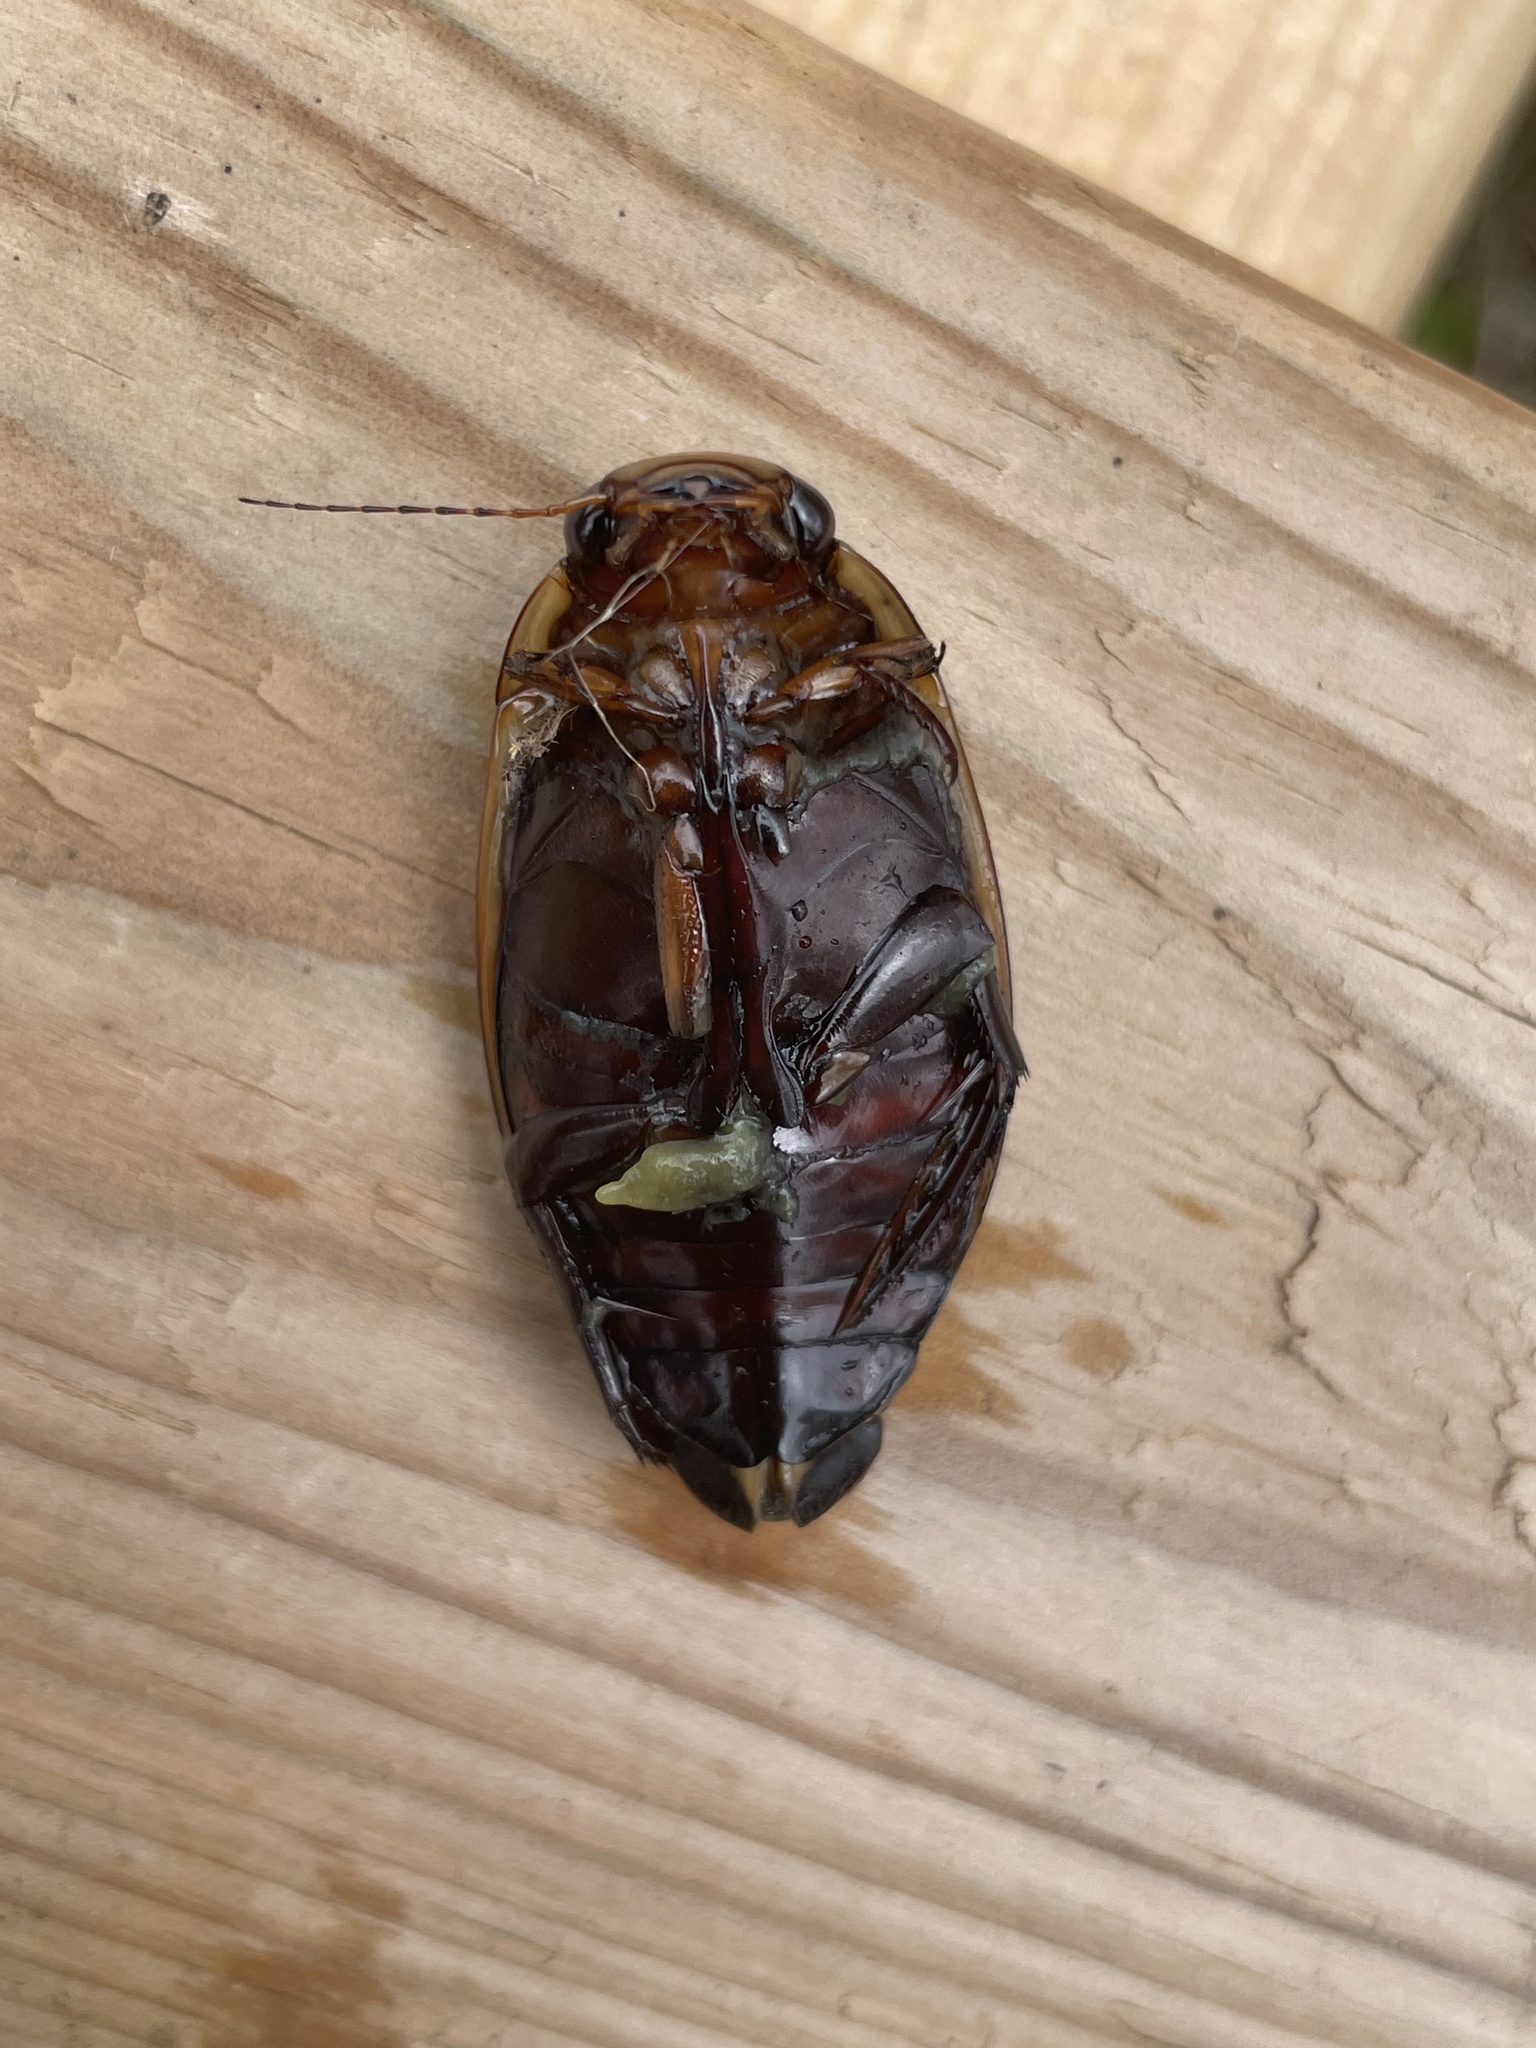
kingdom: Animalia
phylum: Arthropoda
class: Insecta
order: Coleoptera
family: Dytiscidae
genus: Dytiscus
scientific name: Dytiscus verticalis
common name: Vertical diving beetle
